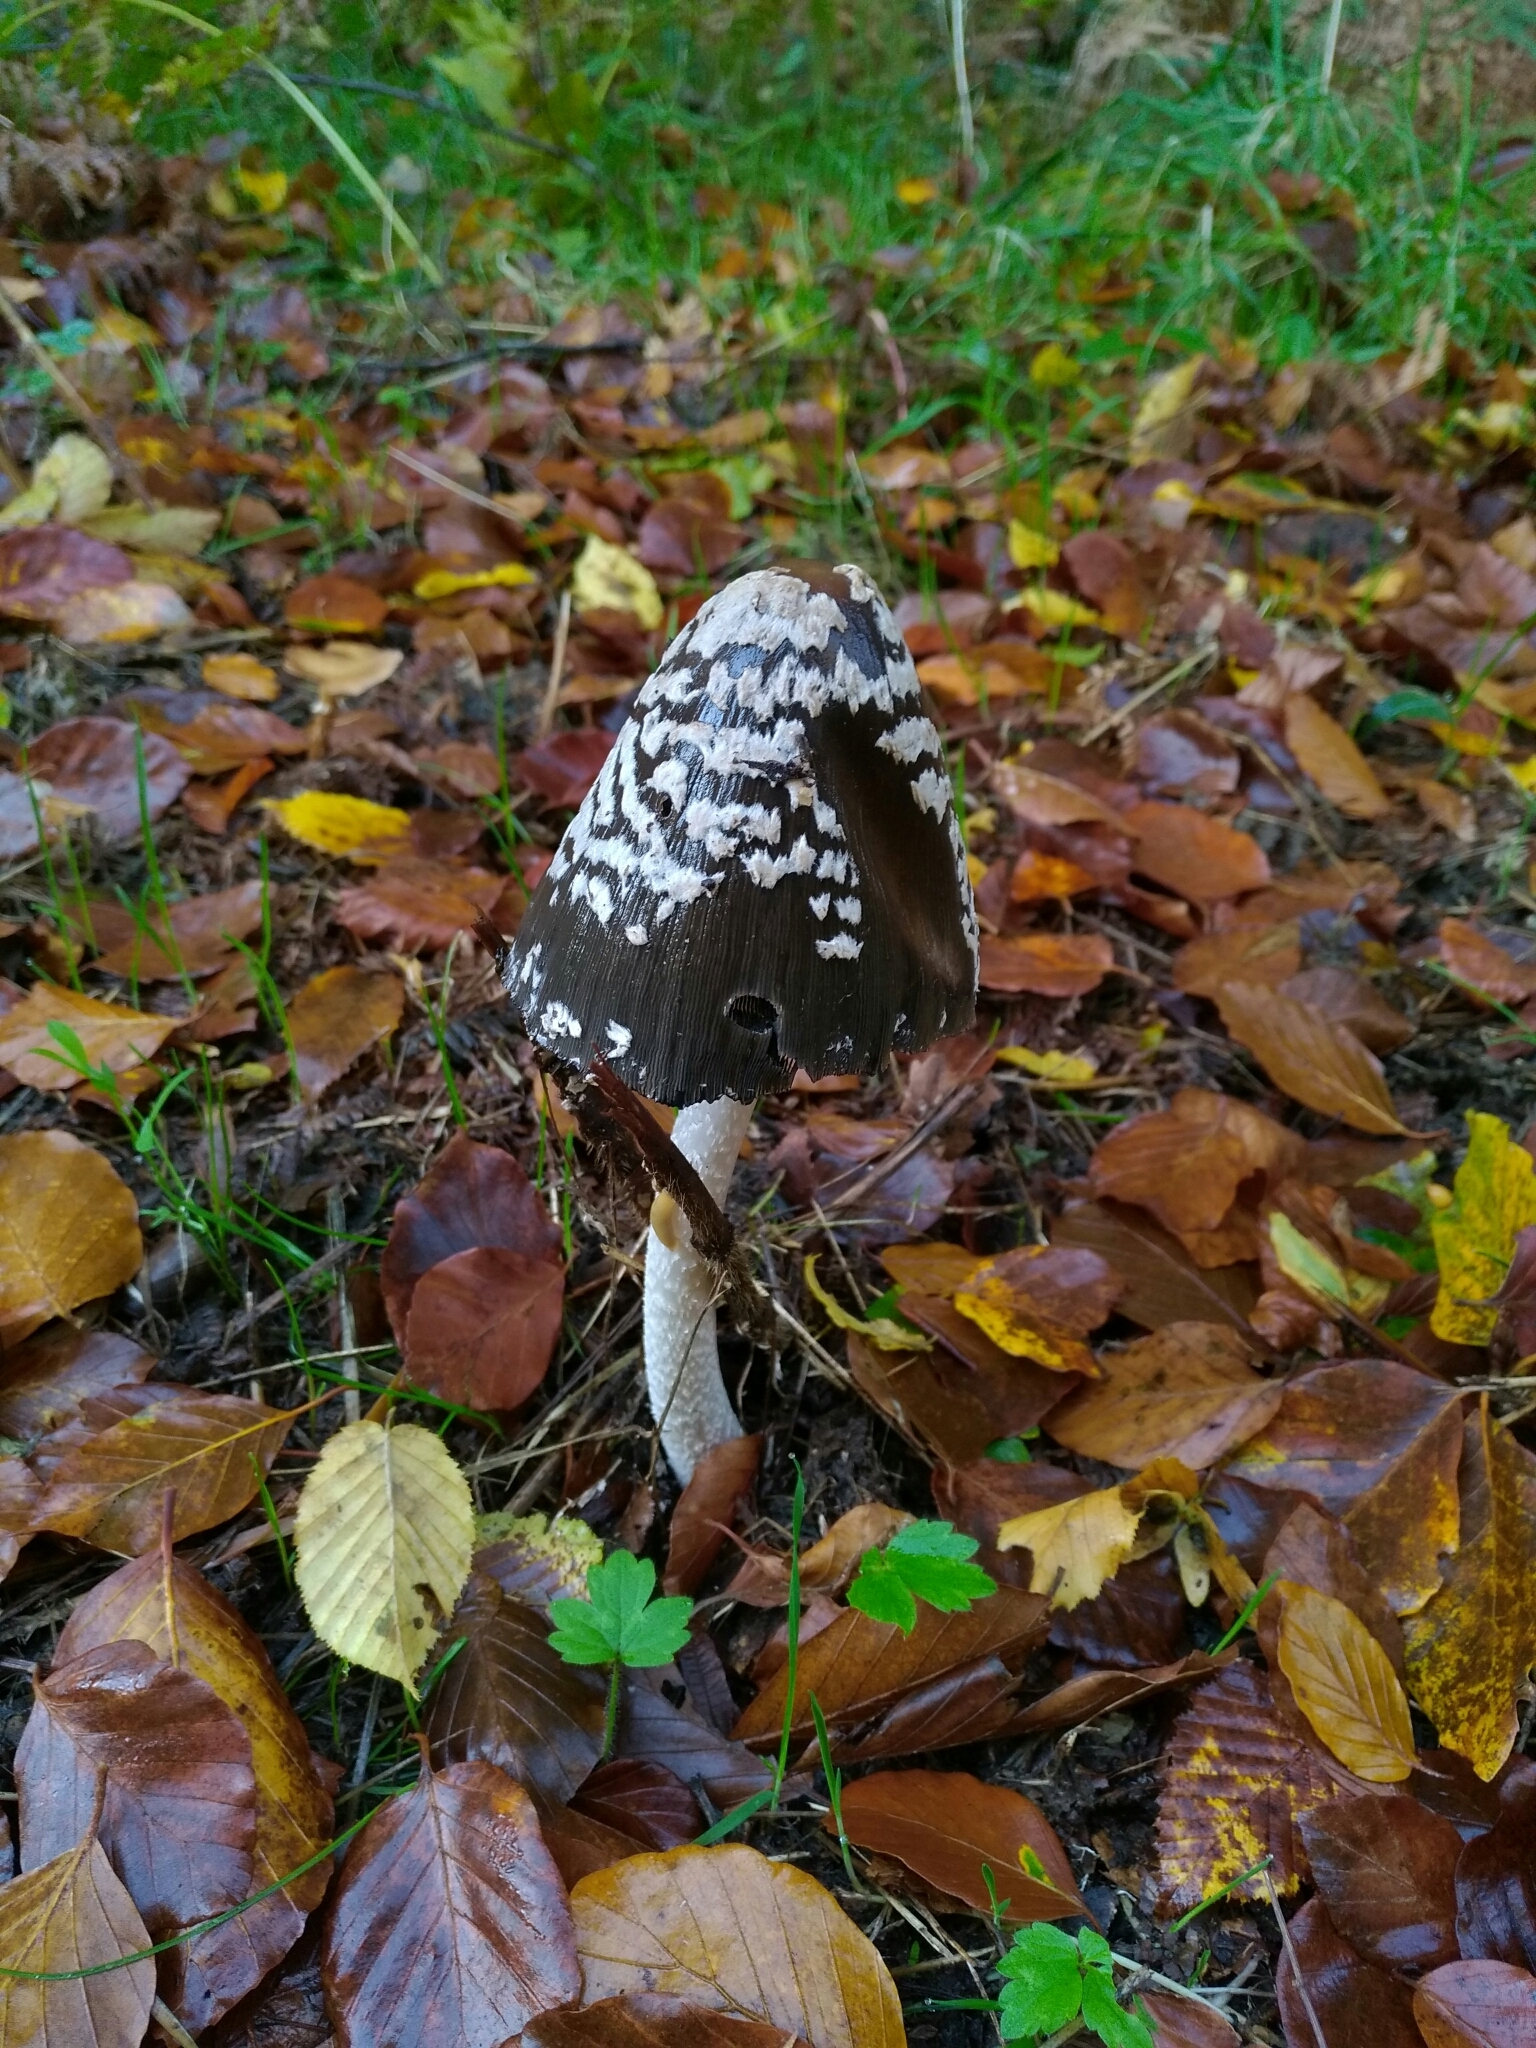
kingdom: Fungi
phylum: Basidiomycota
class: Agaricomycetes
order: Agaricales
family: Psathyrellaceae
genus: Coprinopsis
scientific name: Coprinopsis picacea
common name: Magpie inkcap
